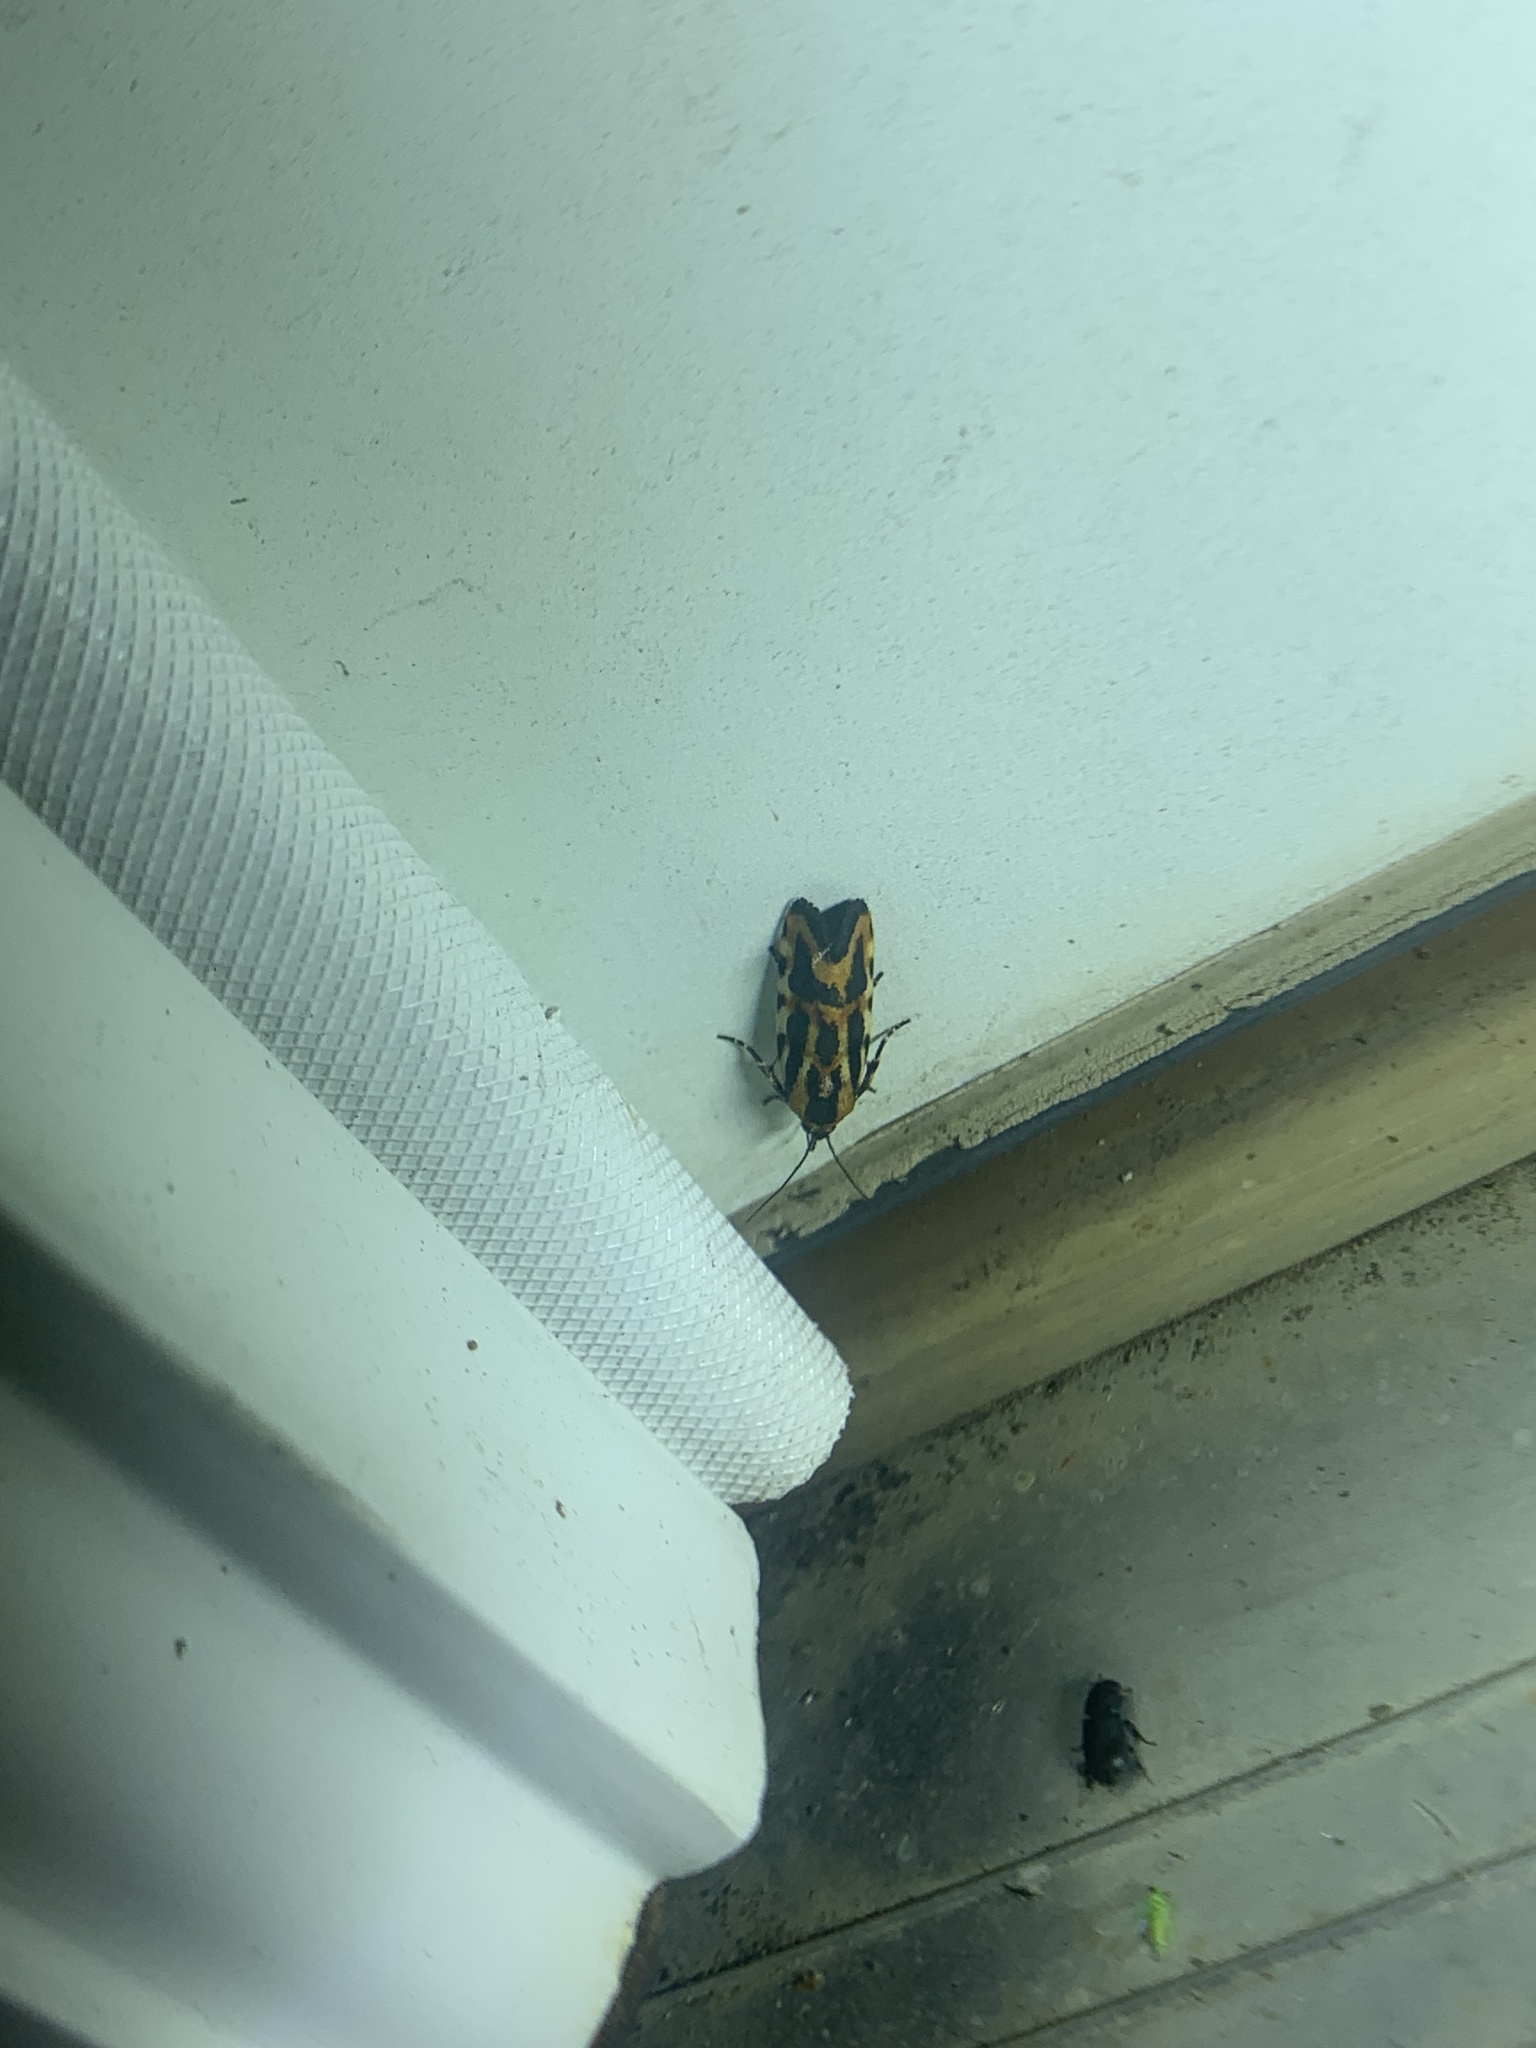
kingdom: Animalia
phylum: Arthropoda
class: Insecta
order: Lepidoptera
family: Noctuidae
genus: Acontia
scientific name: Acontia leo
